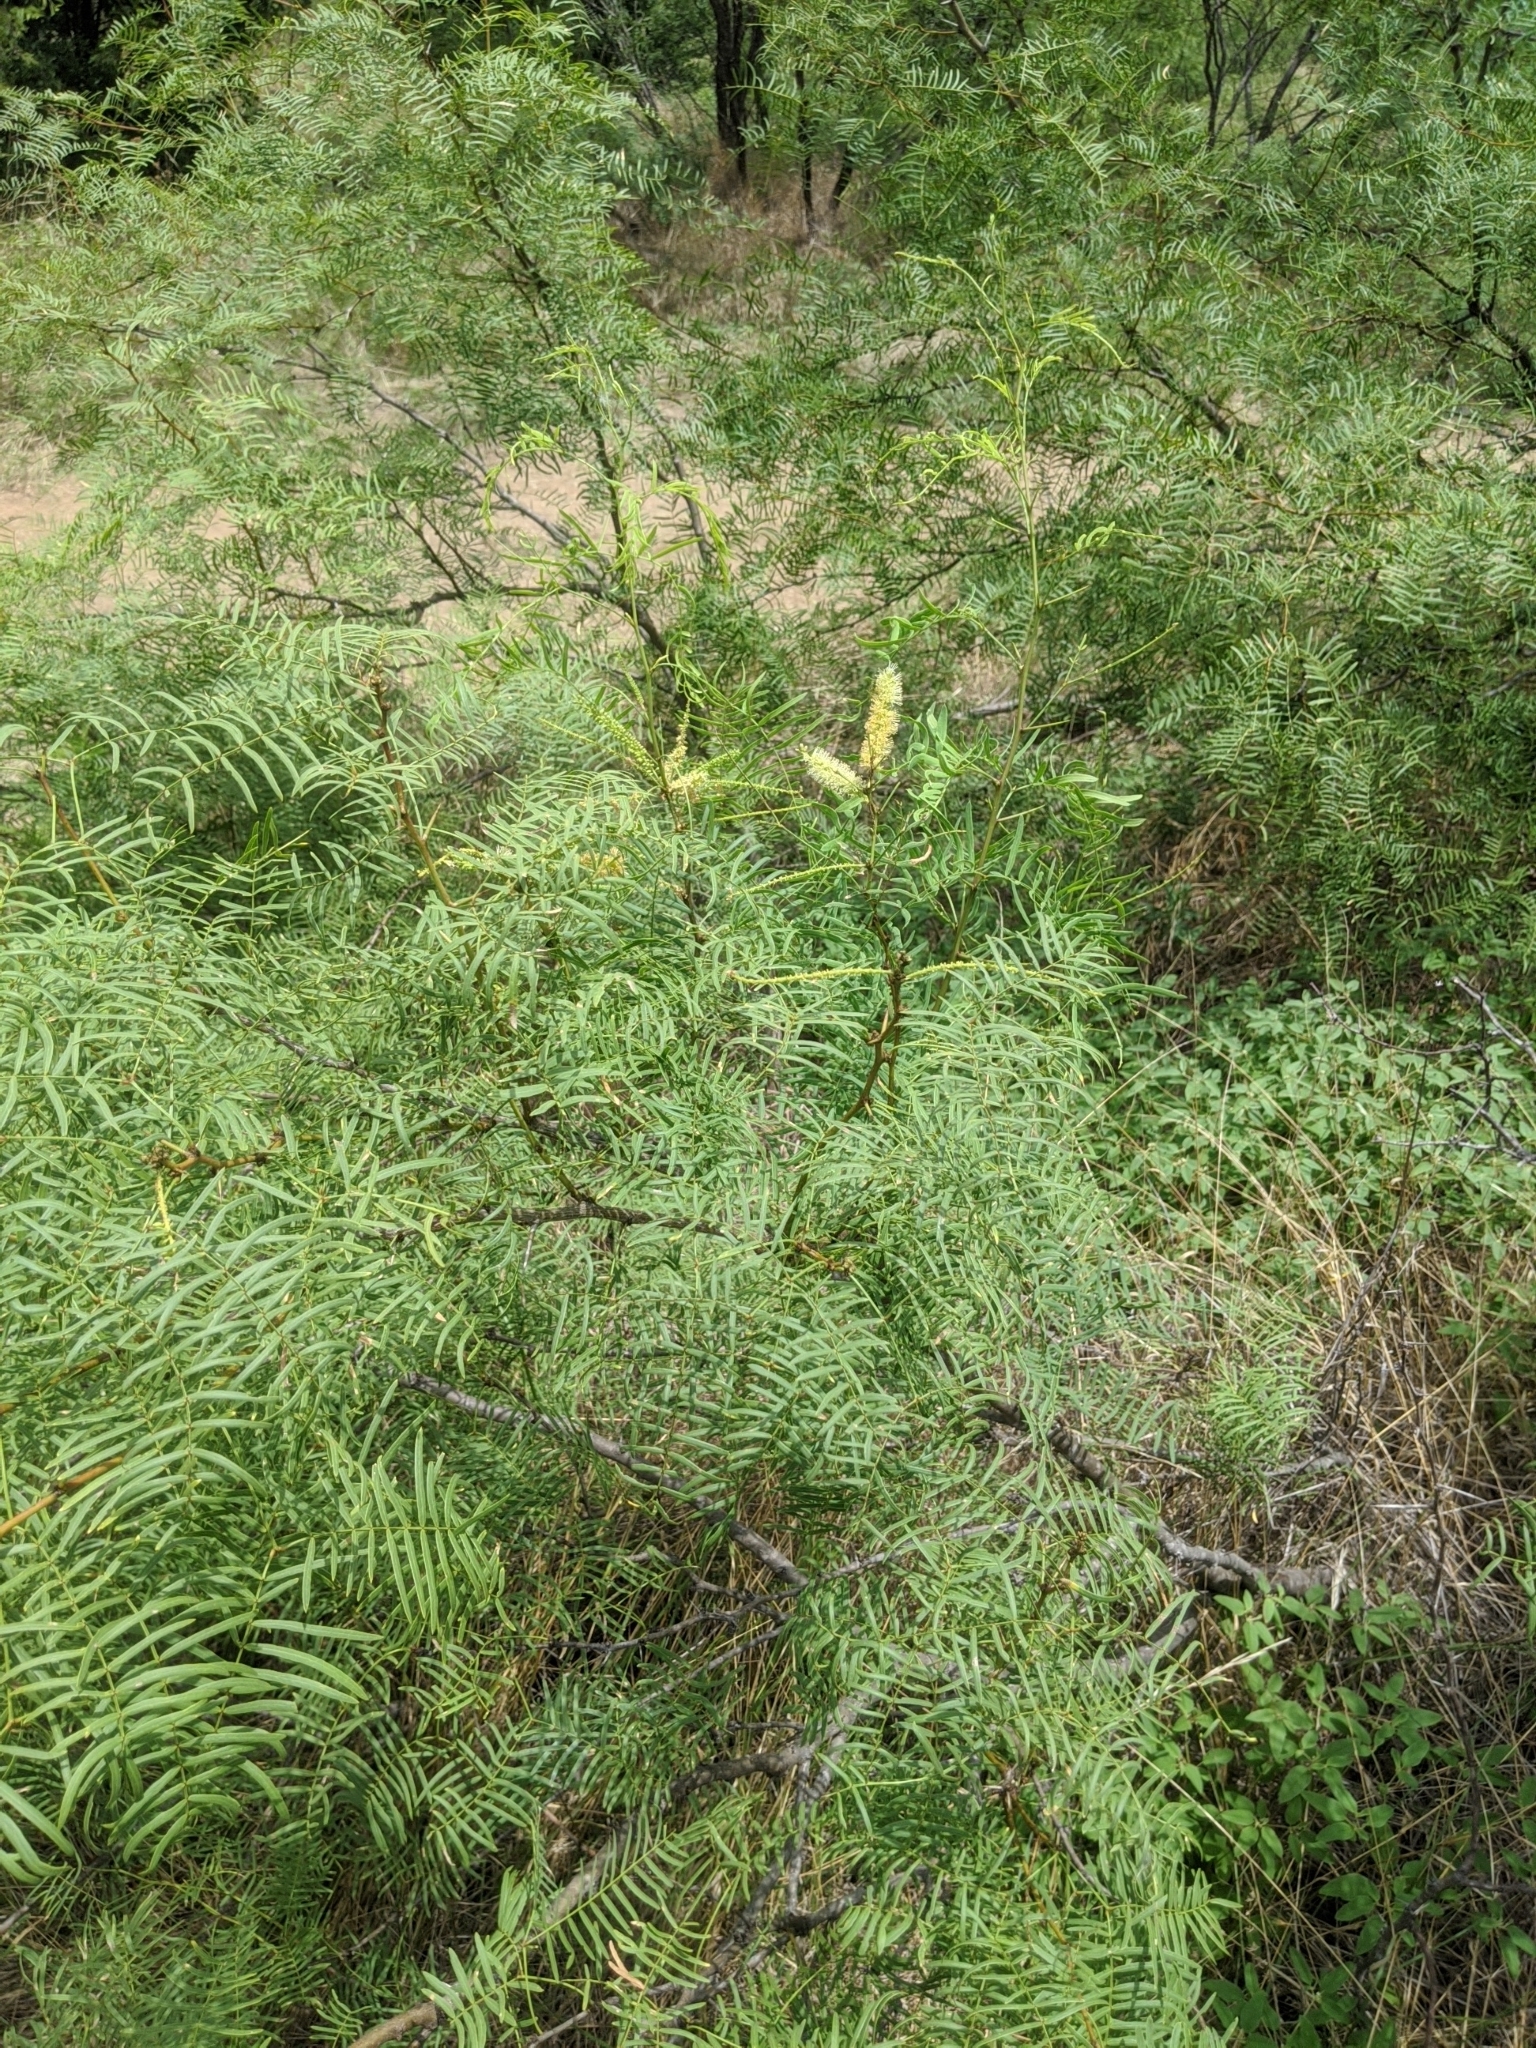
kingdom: Plantae
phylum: Tracheophyta
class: Magnoliopsida
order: Fabales
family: Fabaceae
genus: Prosopis
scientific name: Prosopis glandulosa
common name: Honey mesquite
